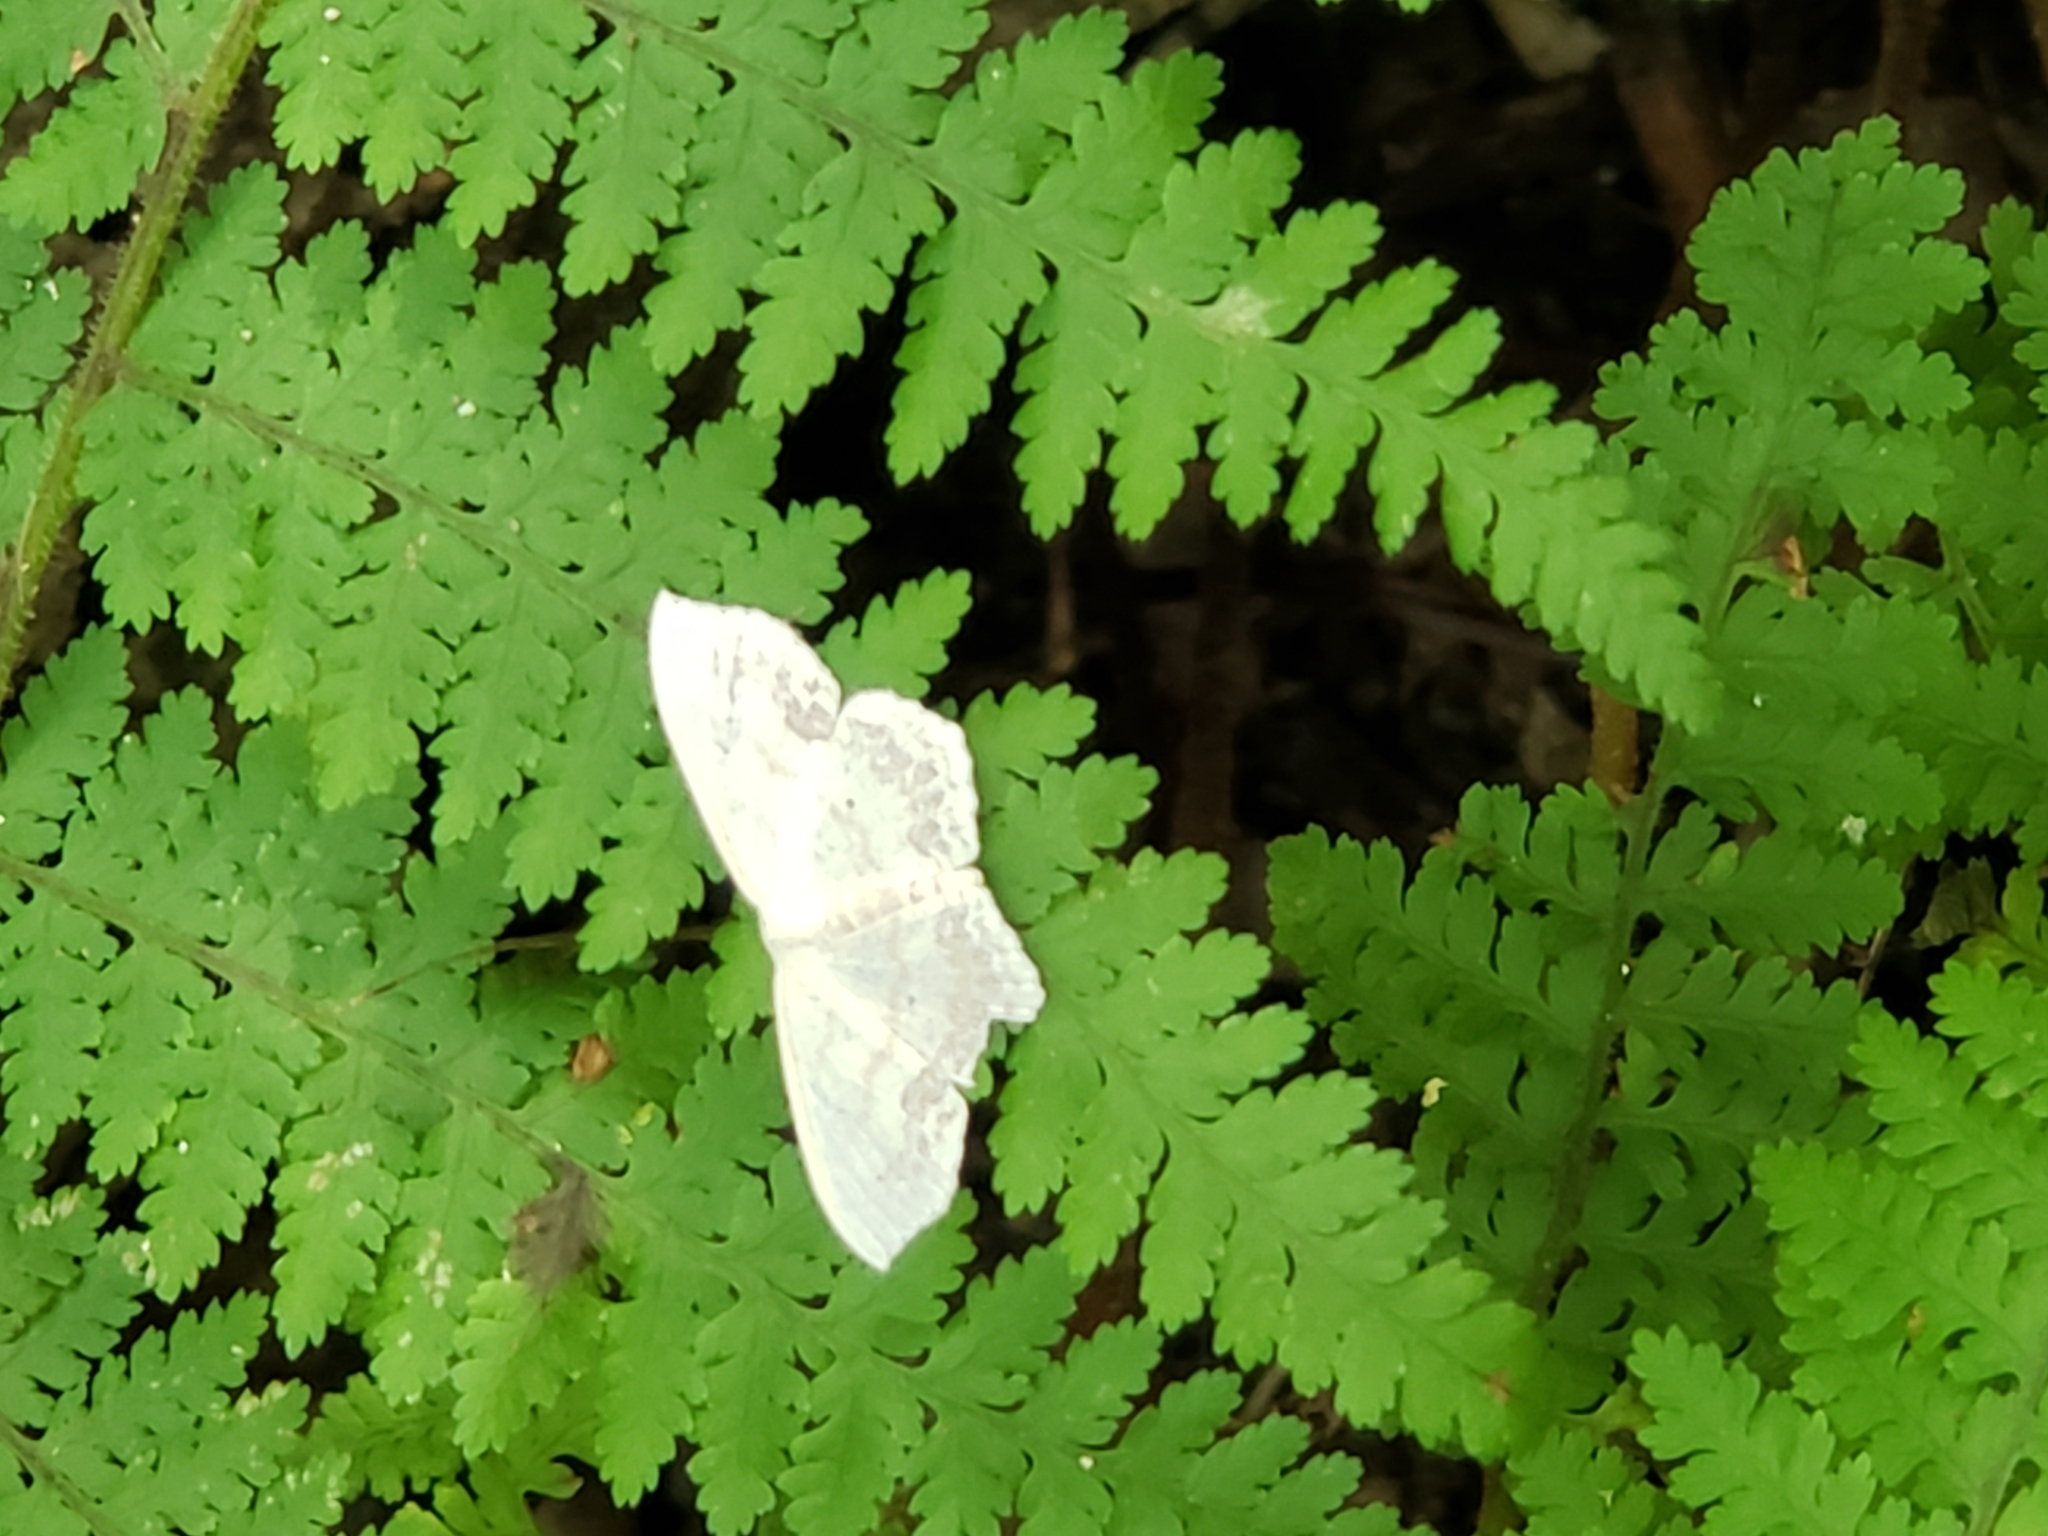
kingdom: Animalia
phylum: Arthropoda
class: Insecta
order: Lepidoptera
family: Geometridae
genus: Scopula
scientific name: Scopula limboundata
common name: Large lace border
